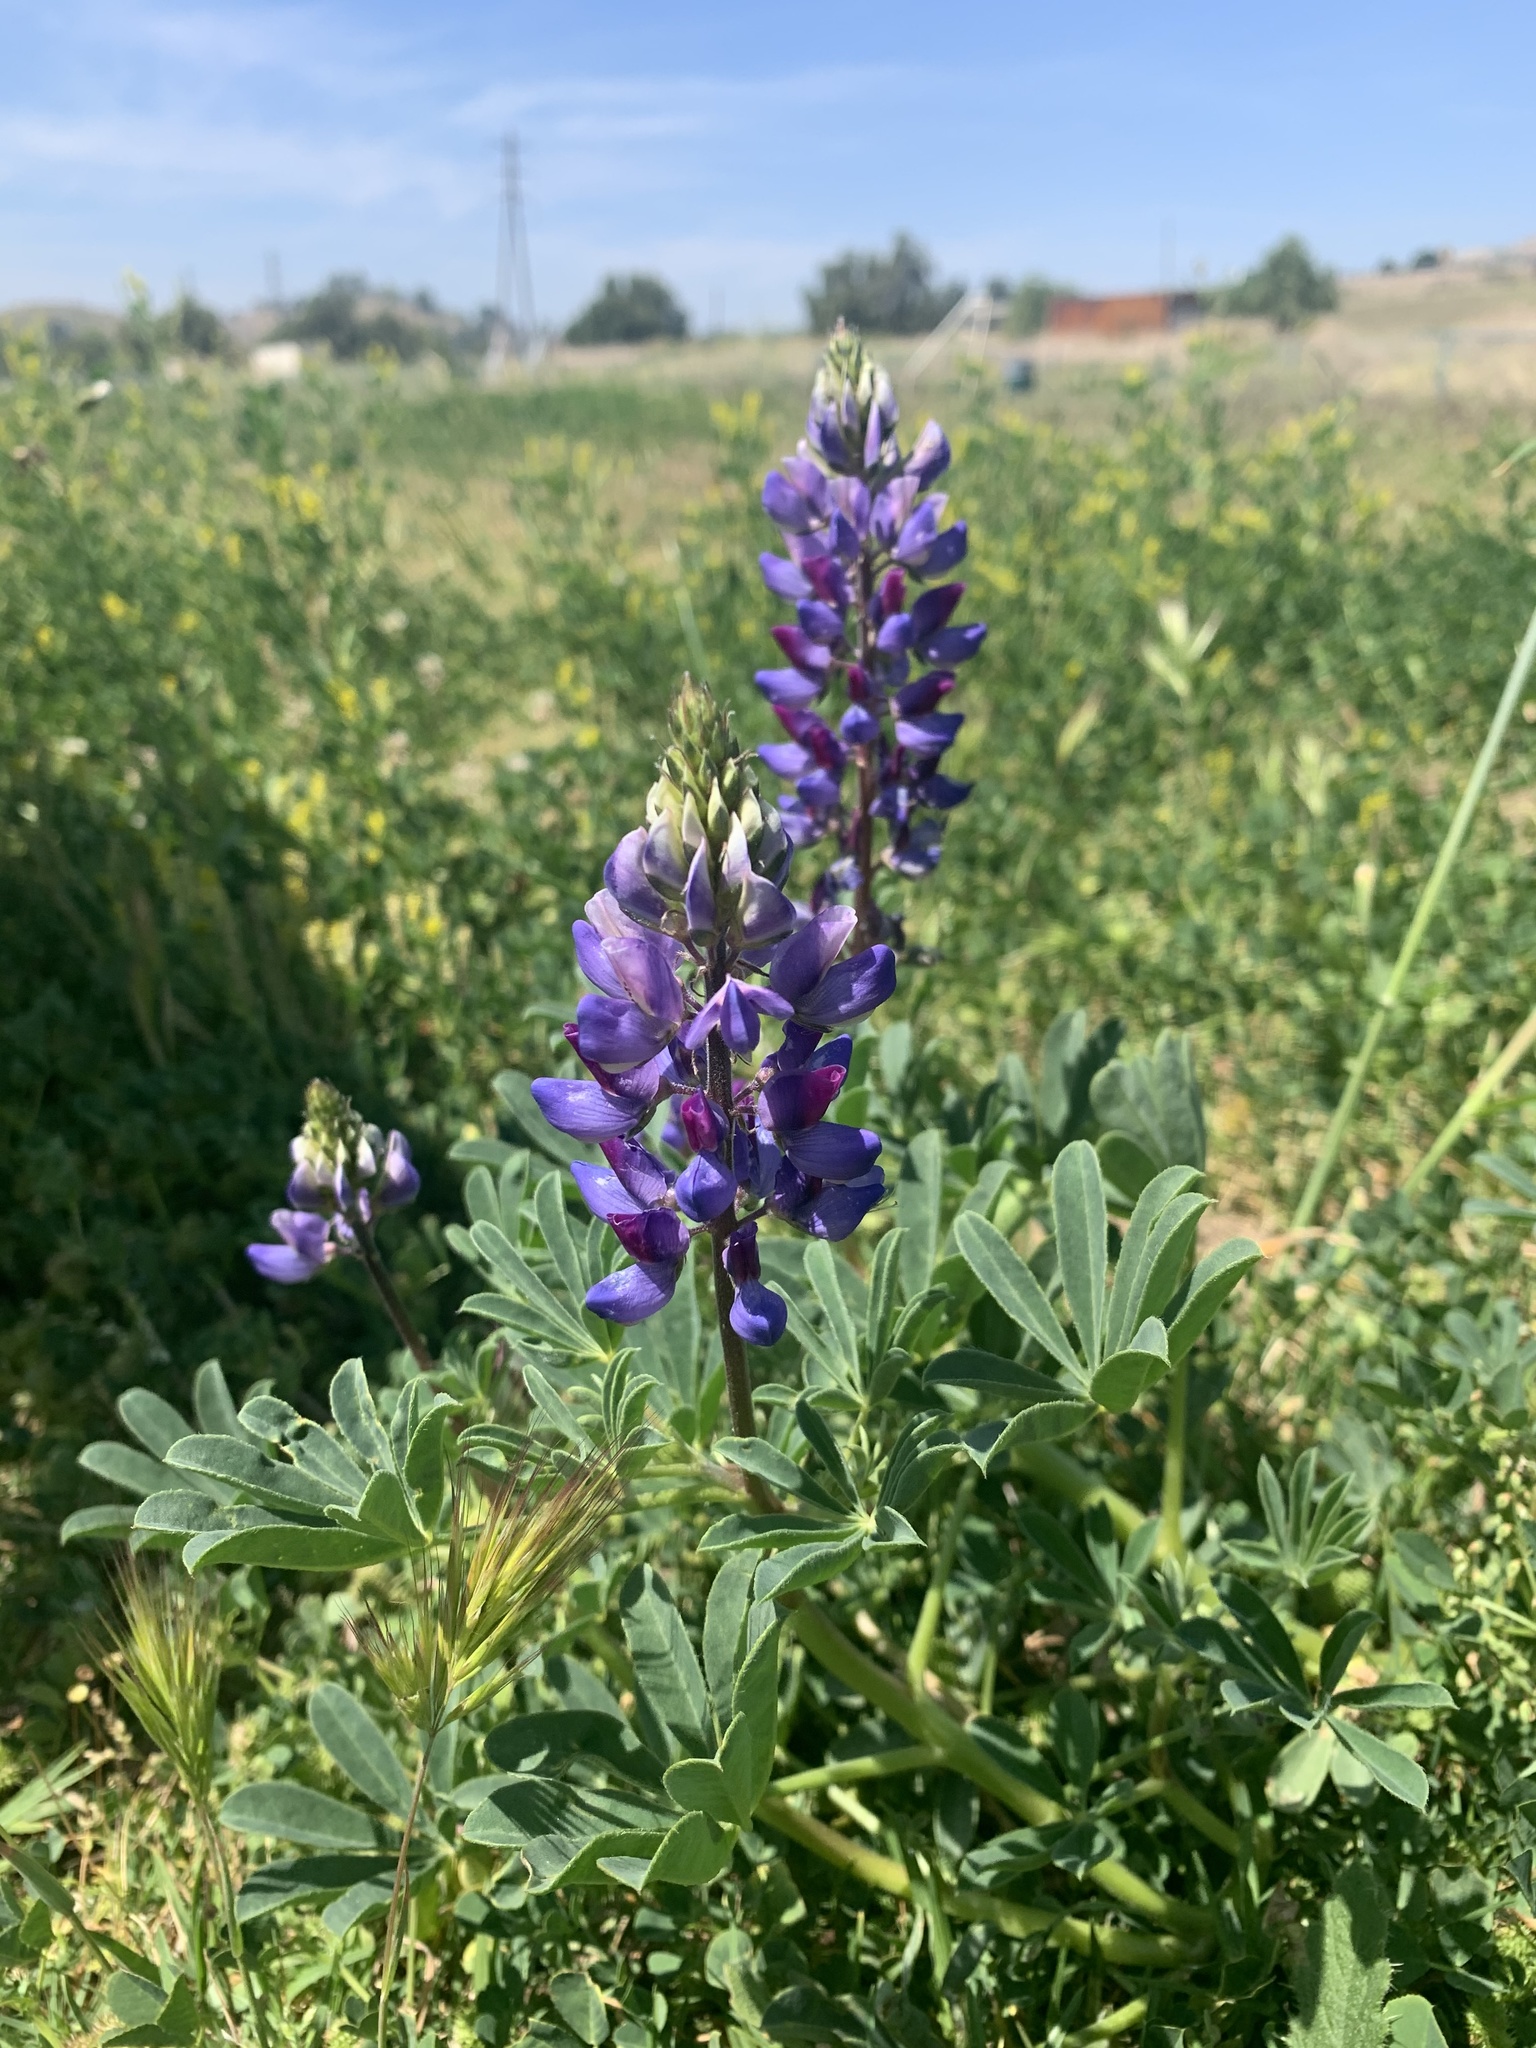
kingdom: Plantae
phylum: Tracheophyta
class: Magnoliopsida
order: Fabales
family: Fabaceae
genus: Lupinus
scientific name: Lupinus succulentus
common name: Arroyo lupine
